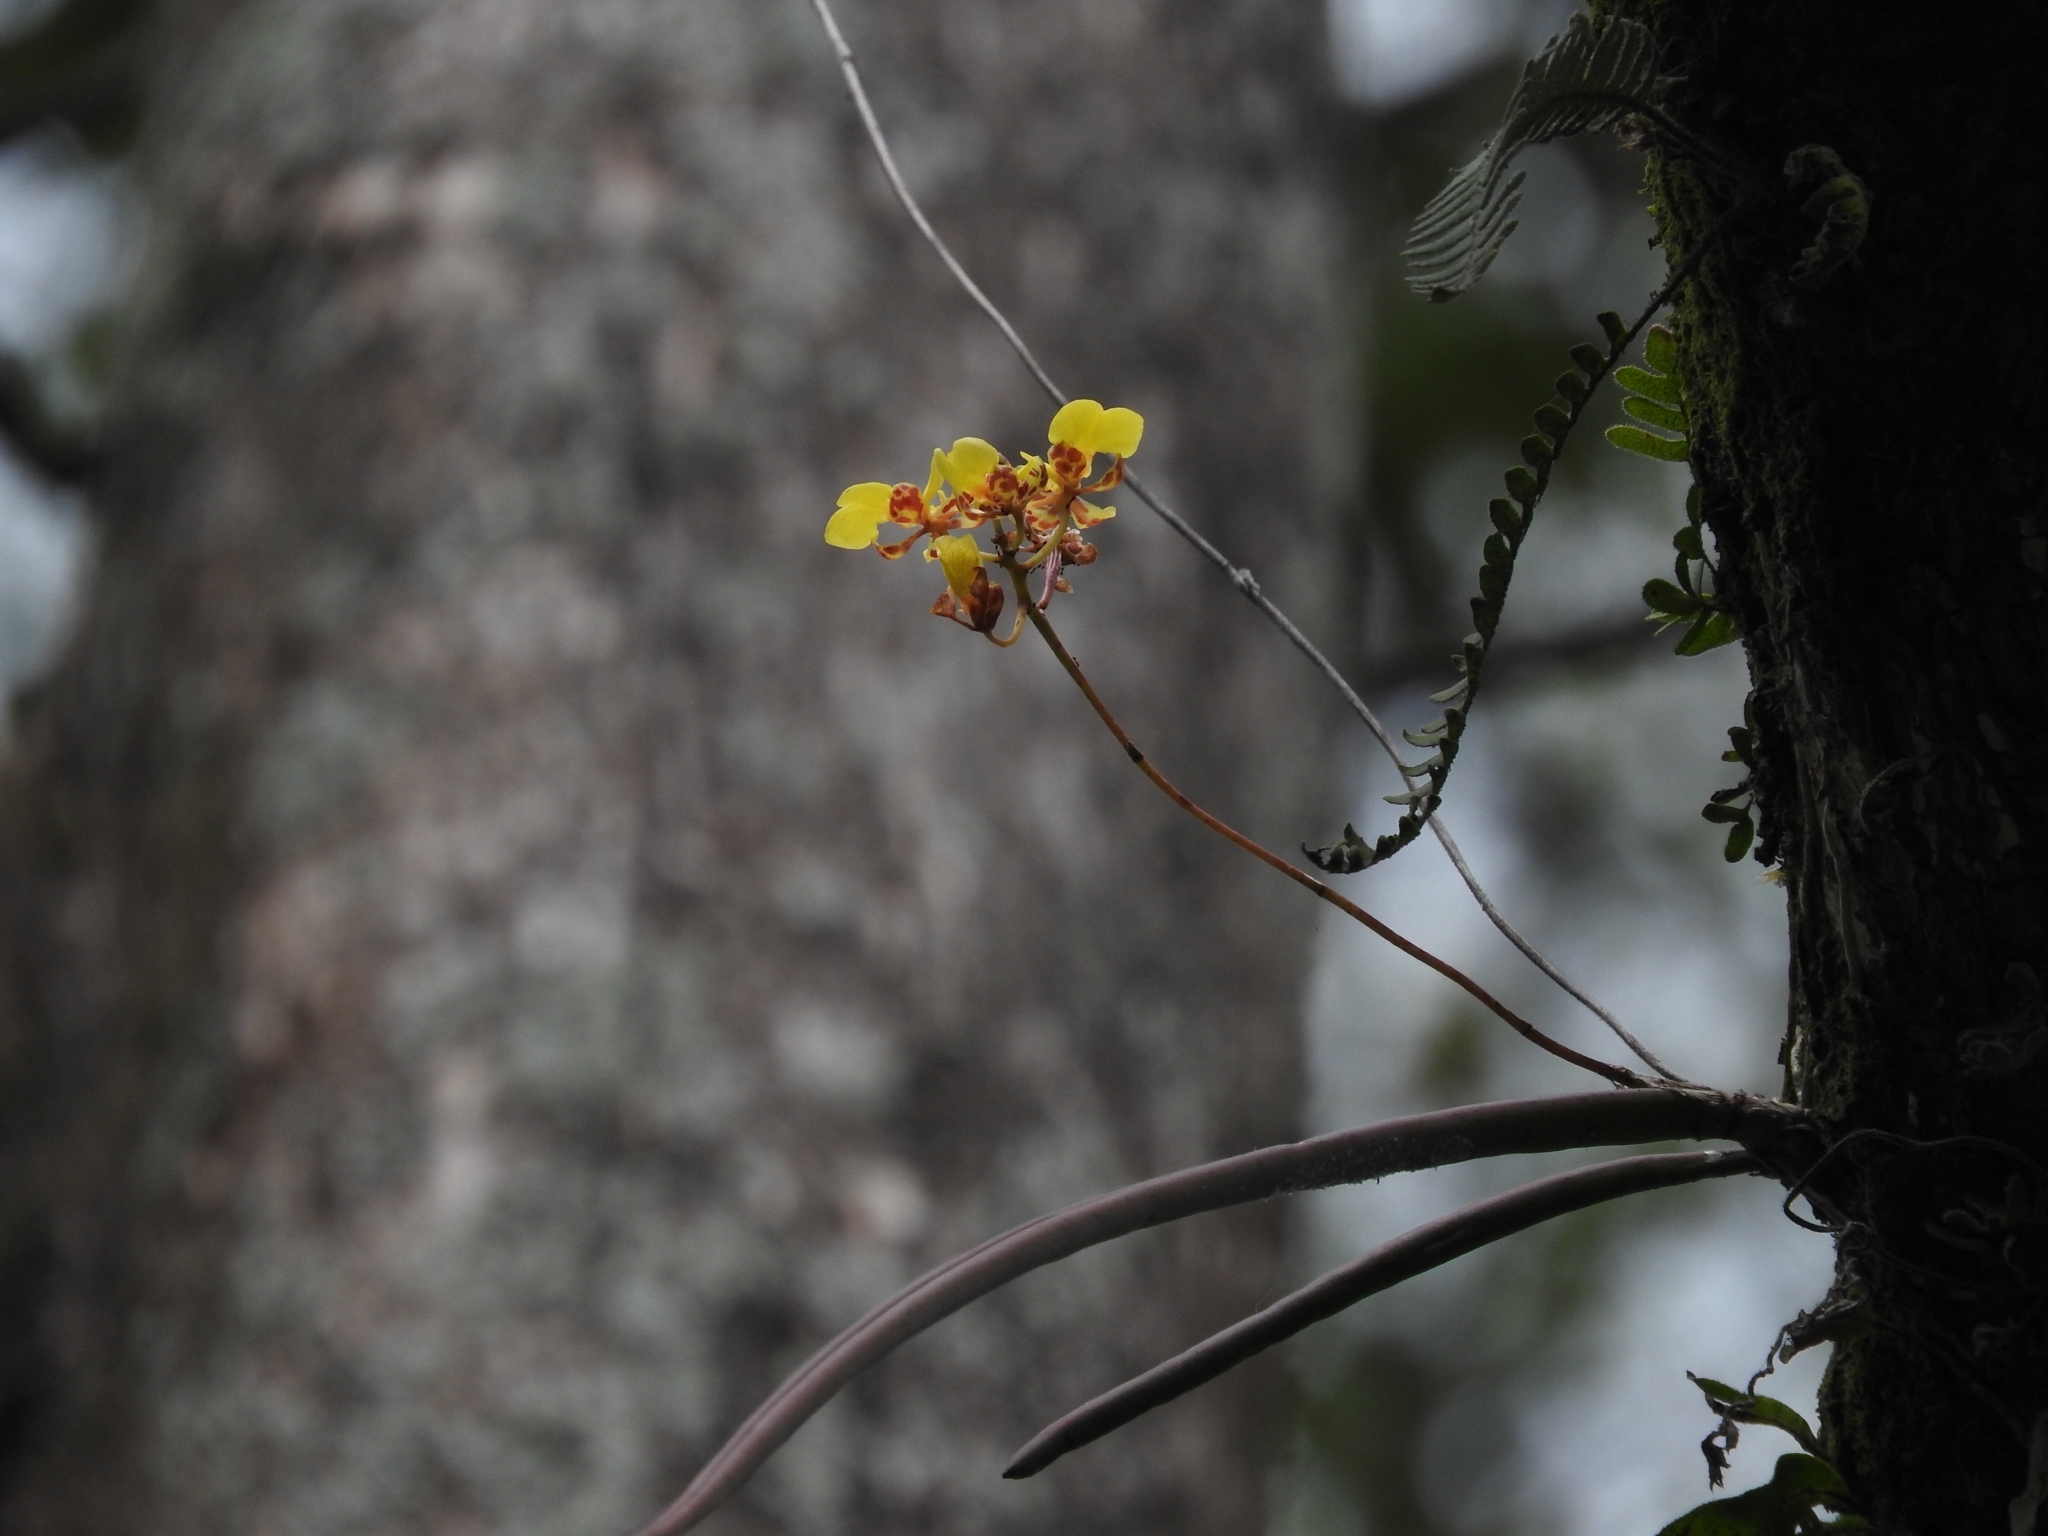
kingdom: Plantae
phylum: Tracheophyta
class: Liliopsida
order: Asparagales
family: Orchidaceae
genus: Trichocentrum
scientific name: Trichocentrum ascendens
